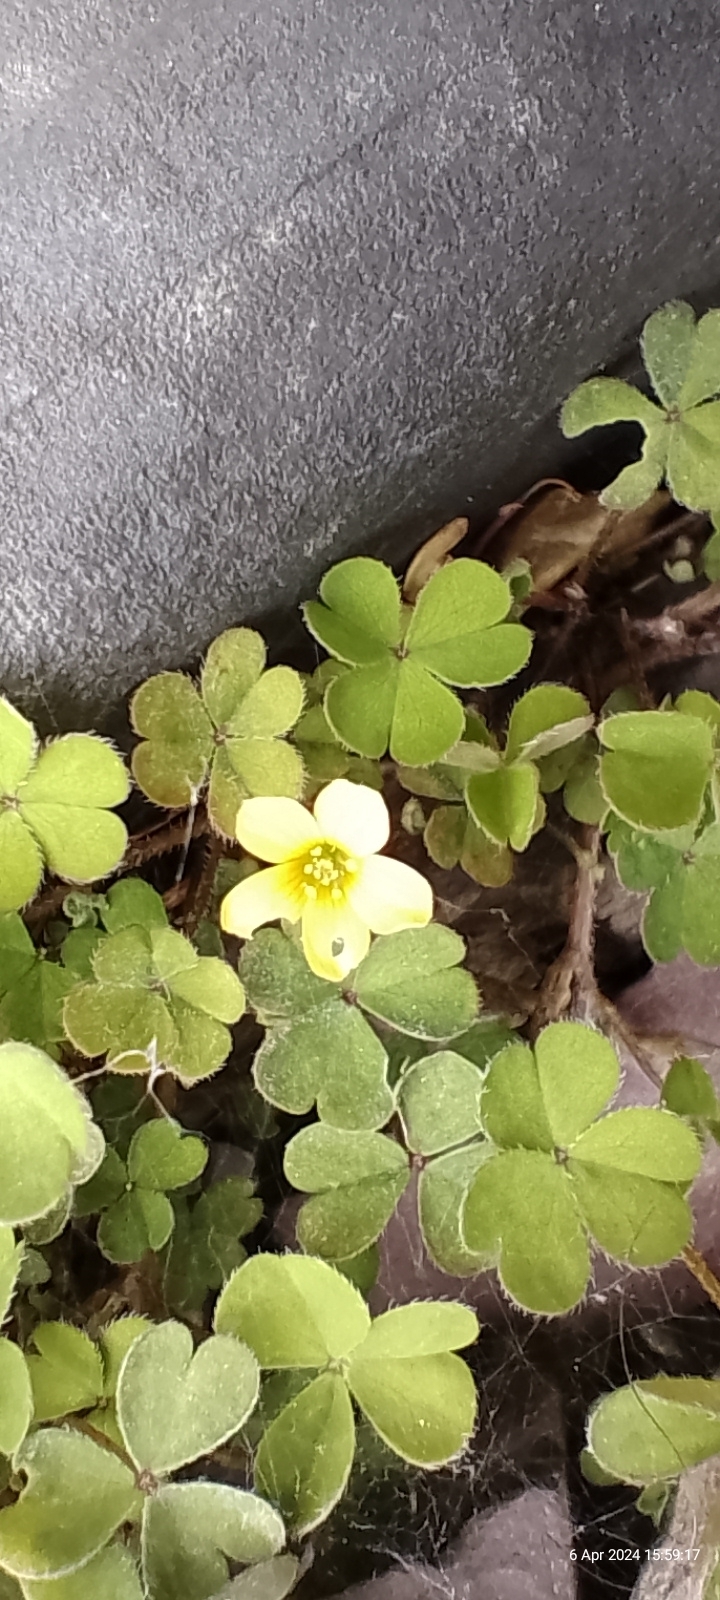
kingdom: Plantae
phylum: Tracheophyta
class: Magnoliopsida
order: Oxalidales
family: Oxalidaceae
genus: Oxalis
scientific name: Oxalis corniculata
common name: Procumbent yellow-sorrel
